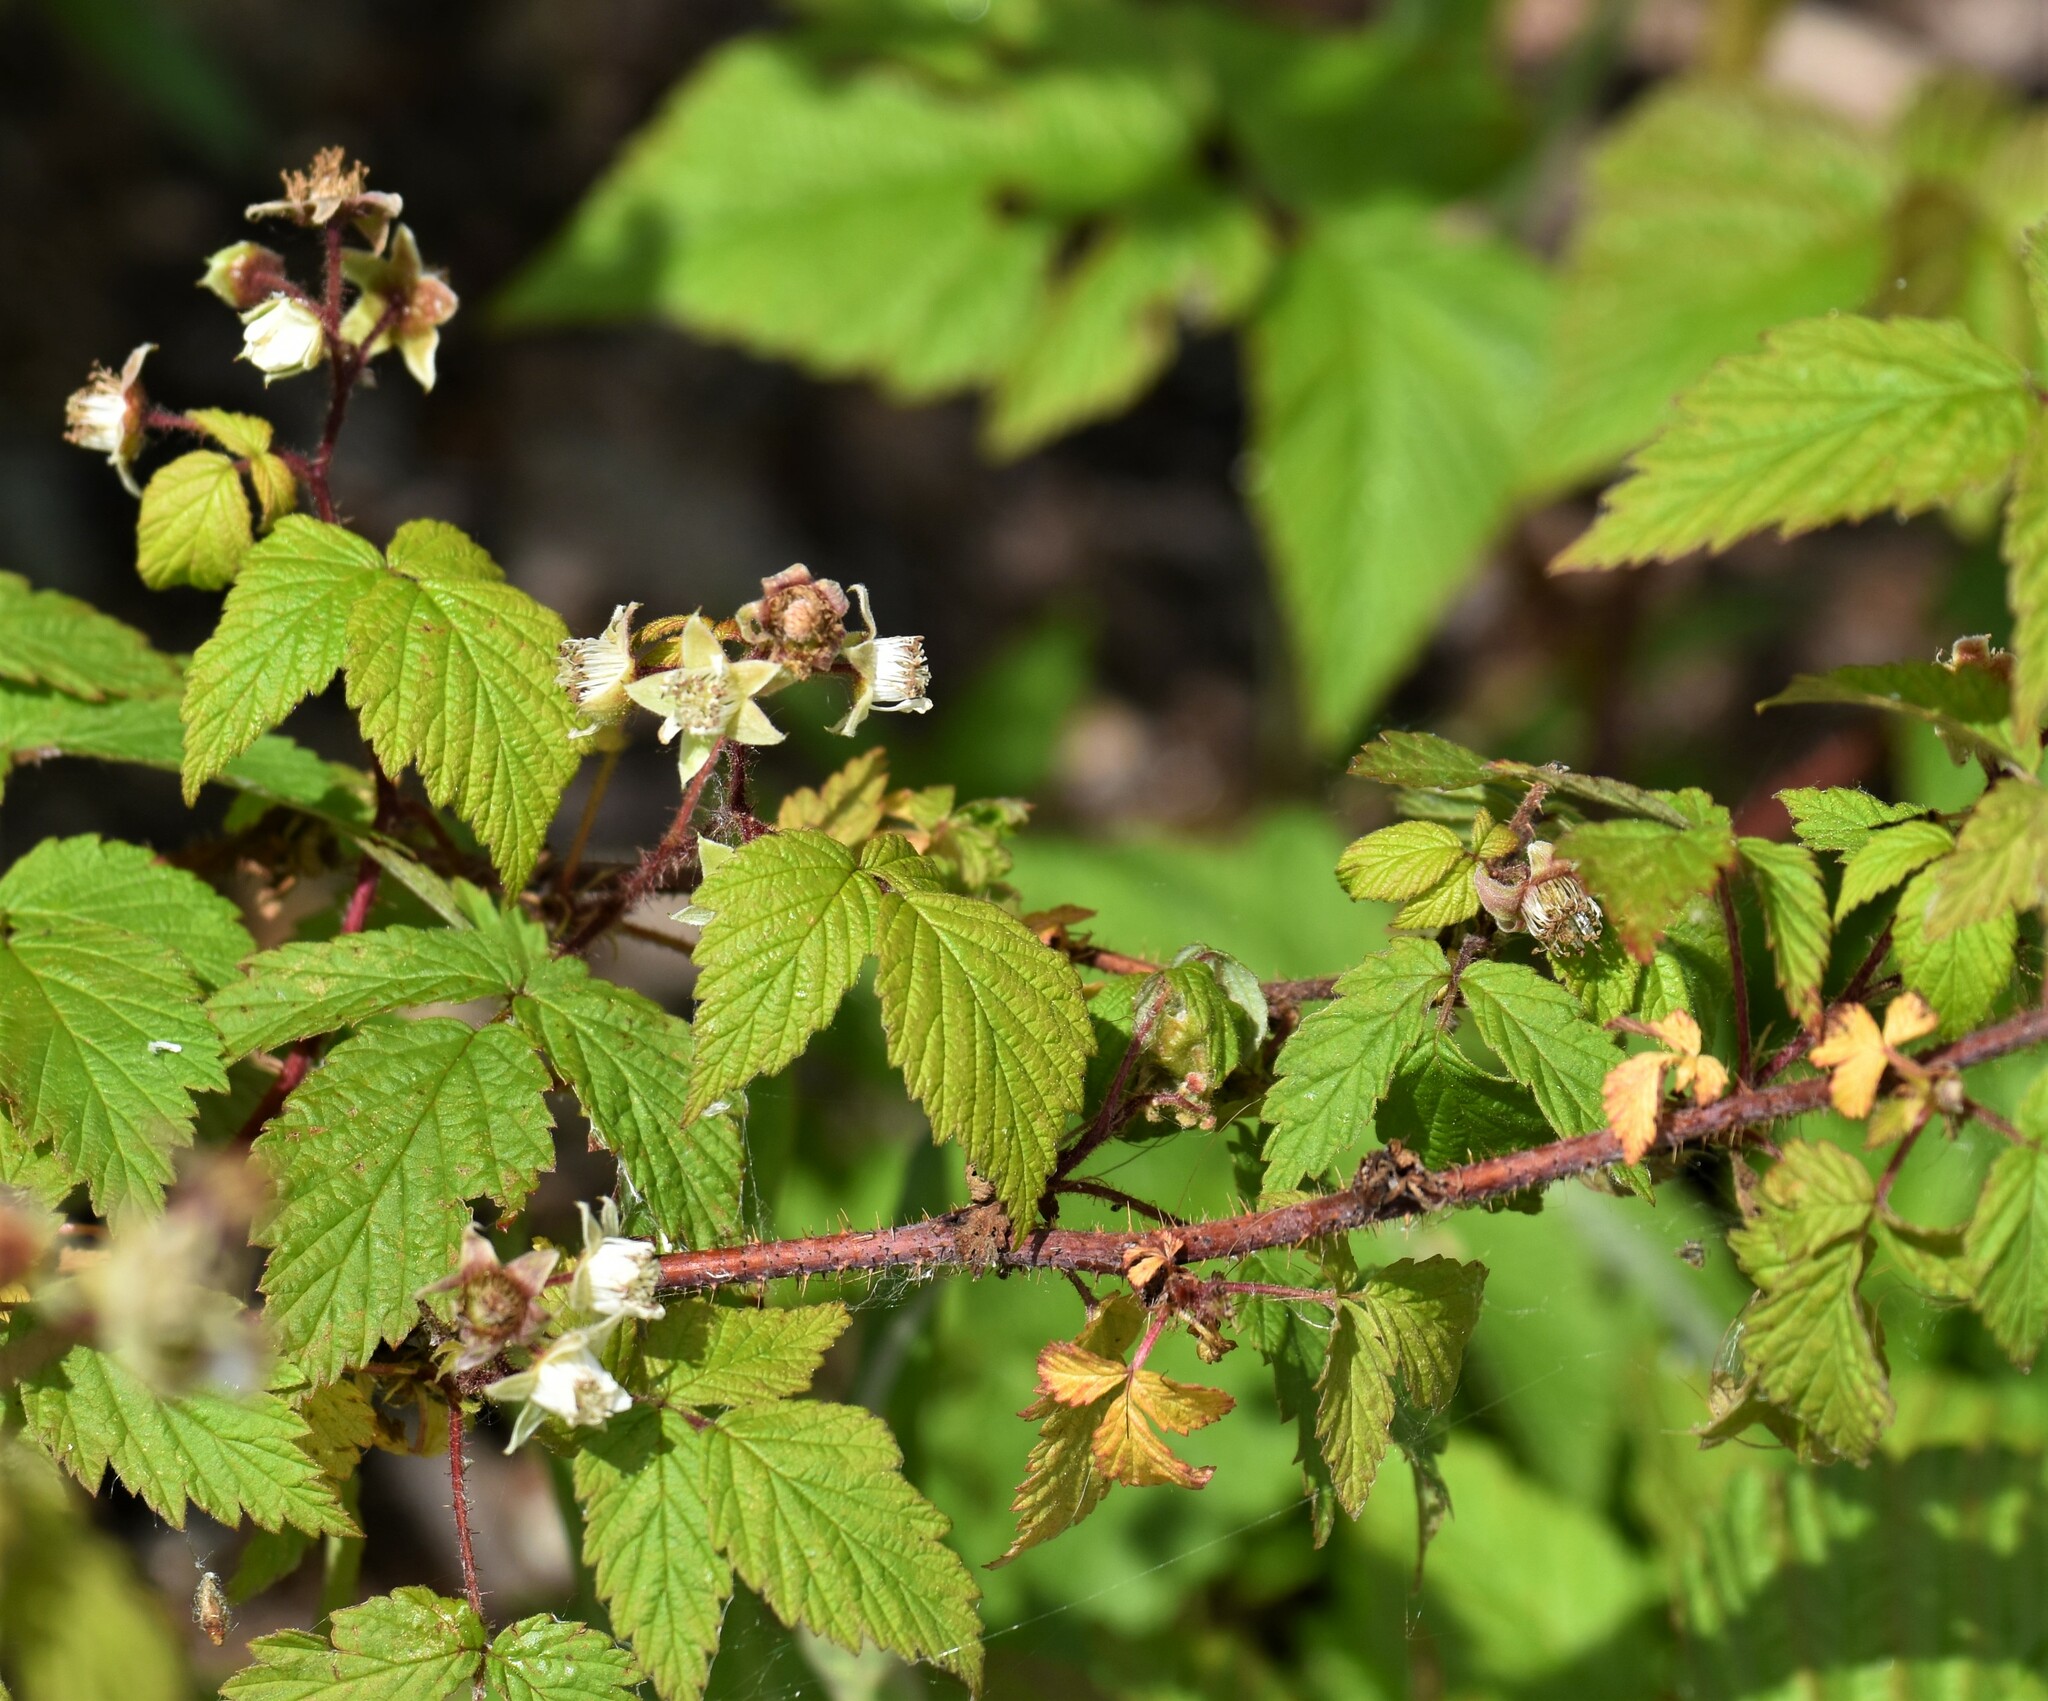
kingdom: Plantae
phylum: Tracheophyta
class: Magnoliopsida
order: Rosales
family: Rosaceae
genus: Rubus
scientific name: Rubus idaeus
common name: Raspberry
